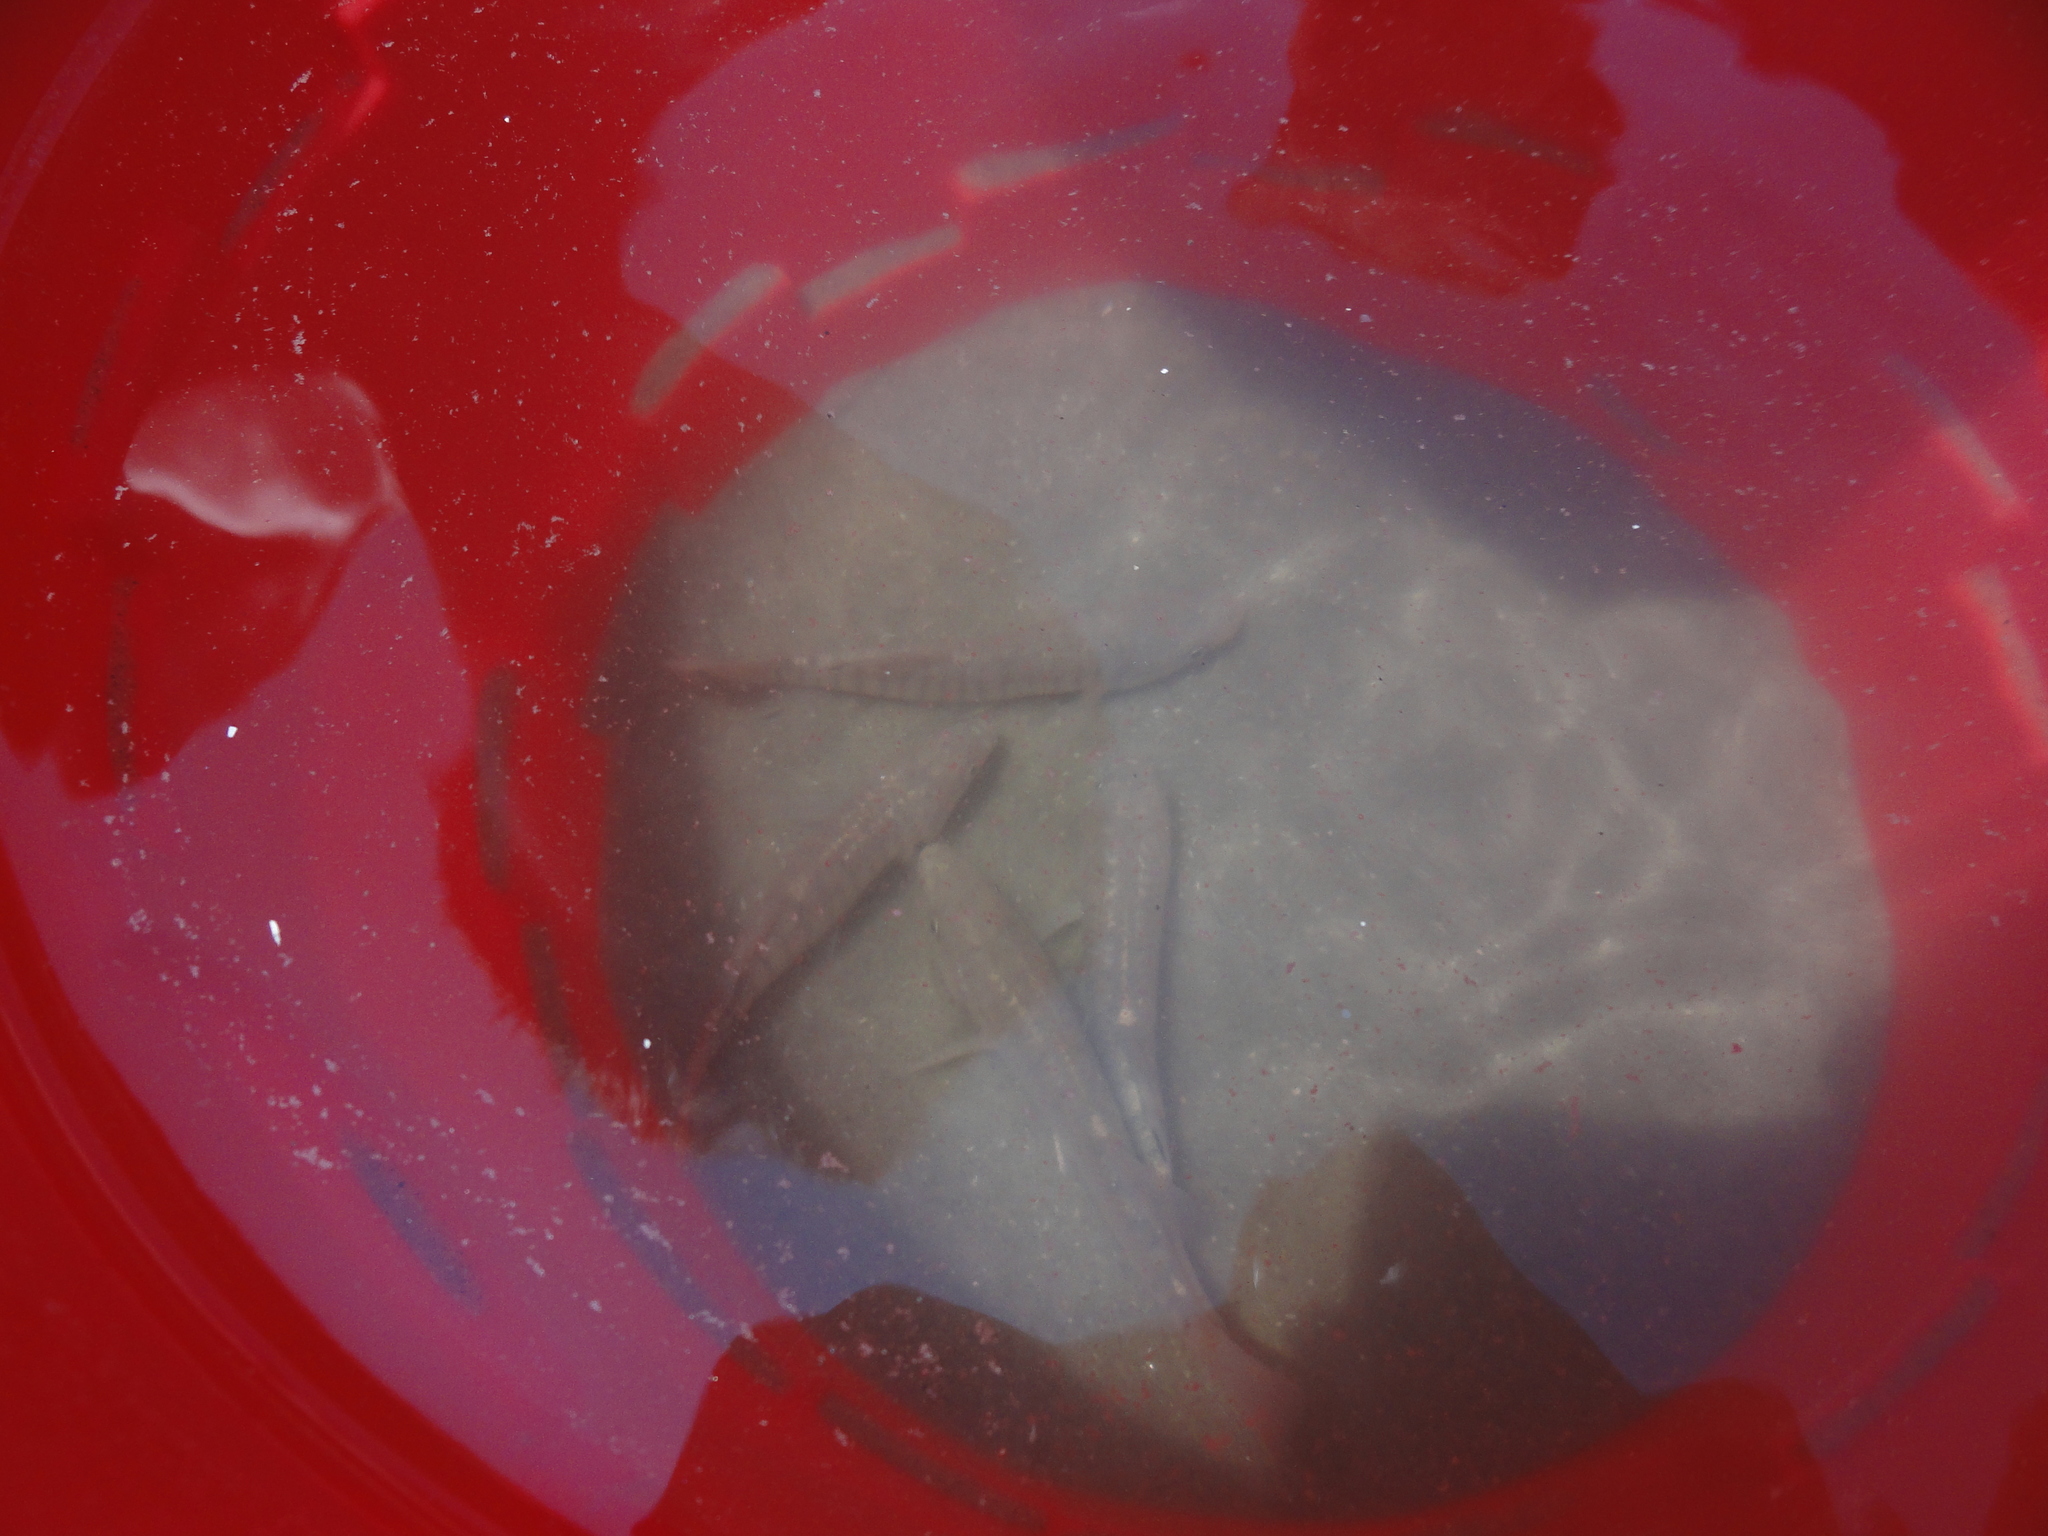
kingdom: Animalia
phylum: Chordata
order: Cyprinodontiformes
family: Fundulidae
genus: Fundulus
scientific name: Fundulus majalis
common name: Striped killifish
